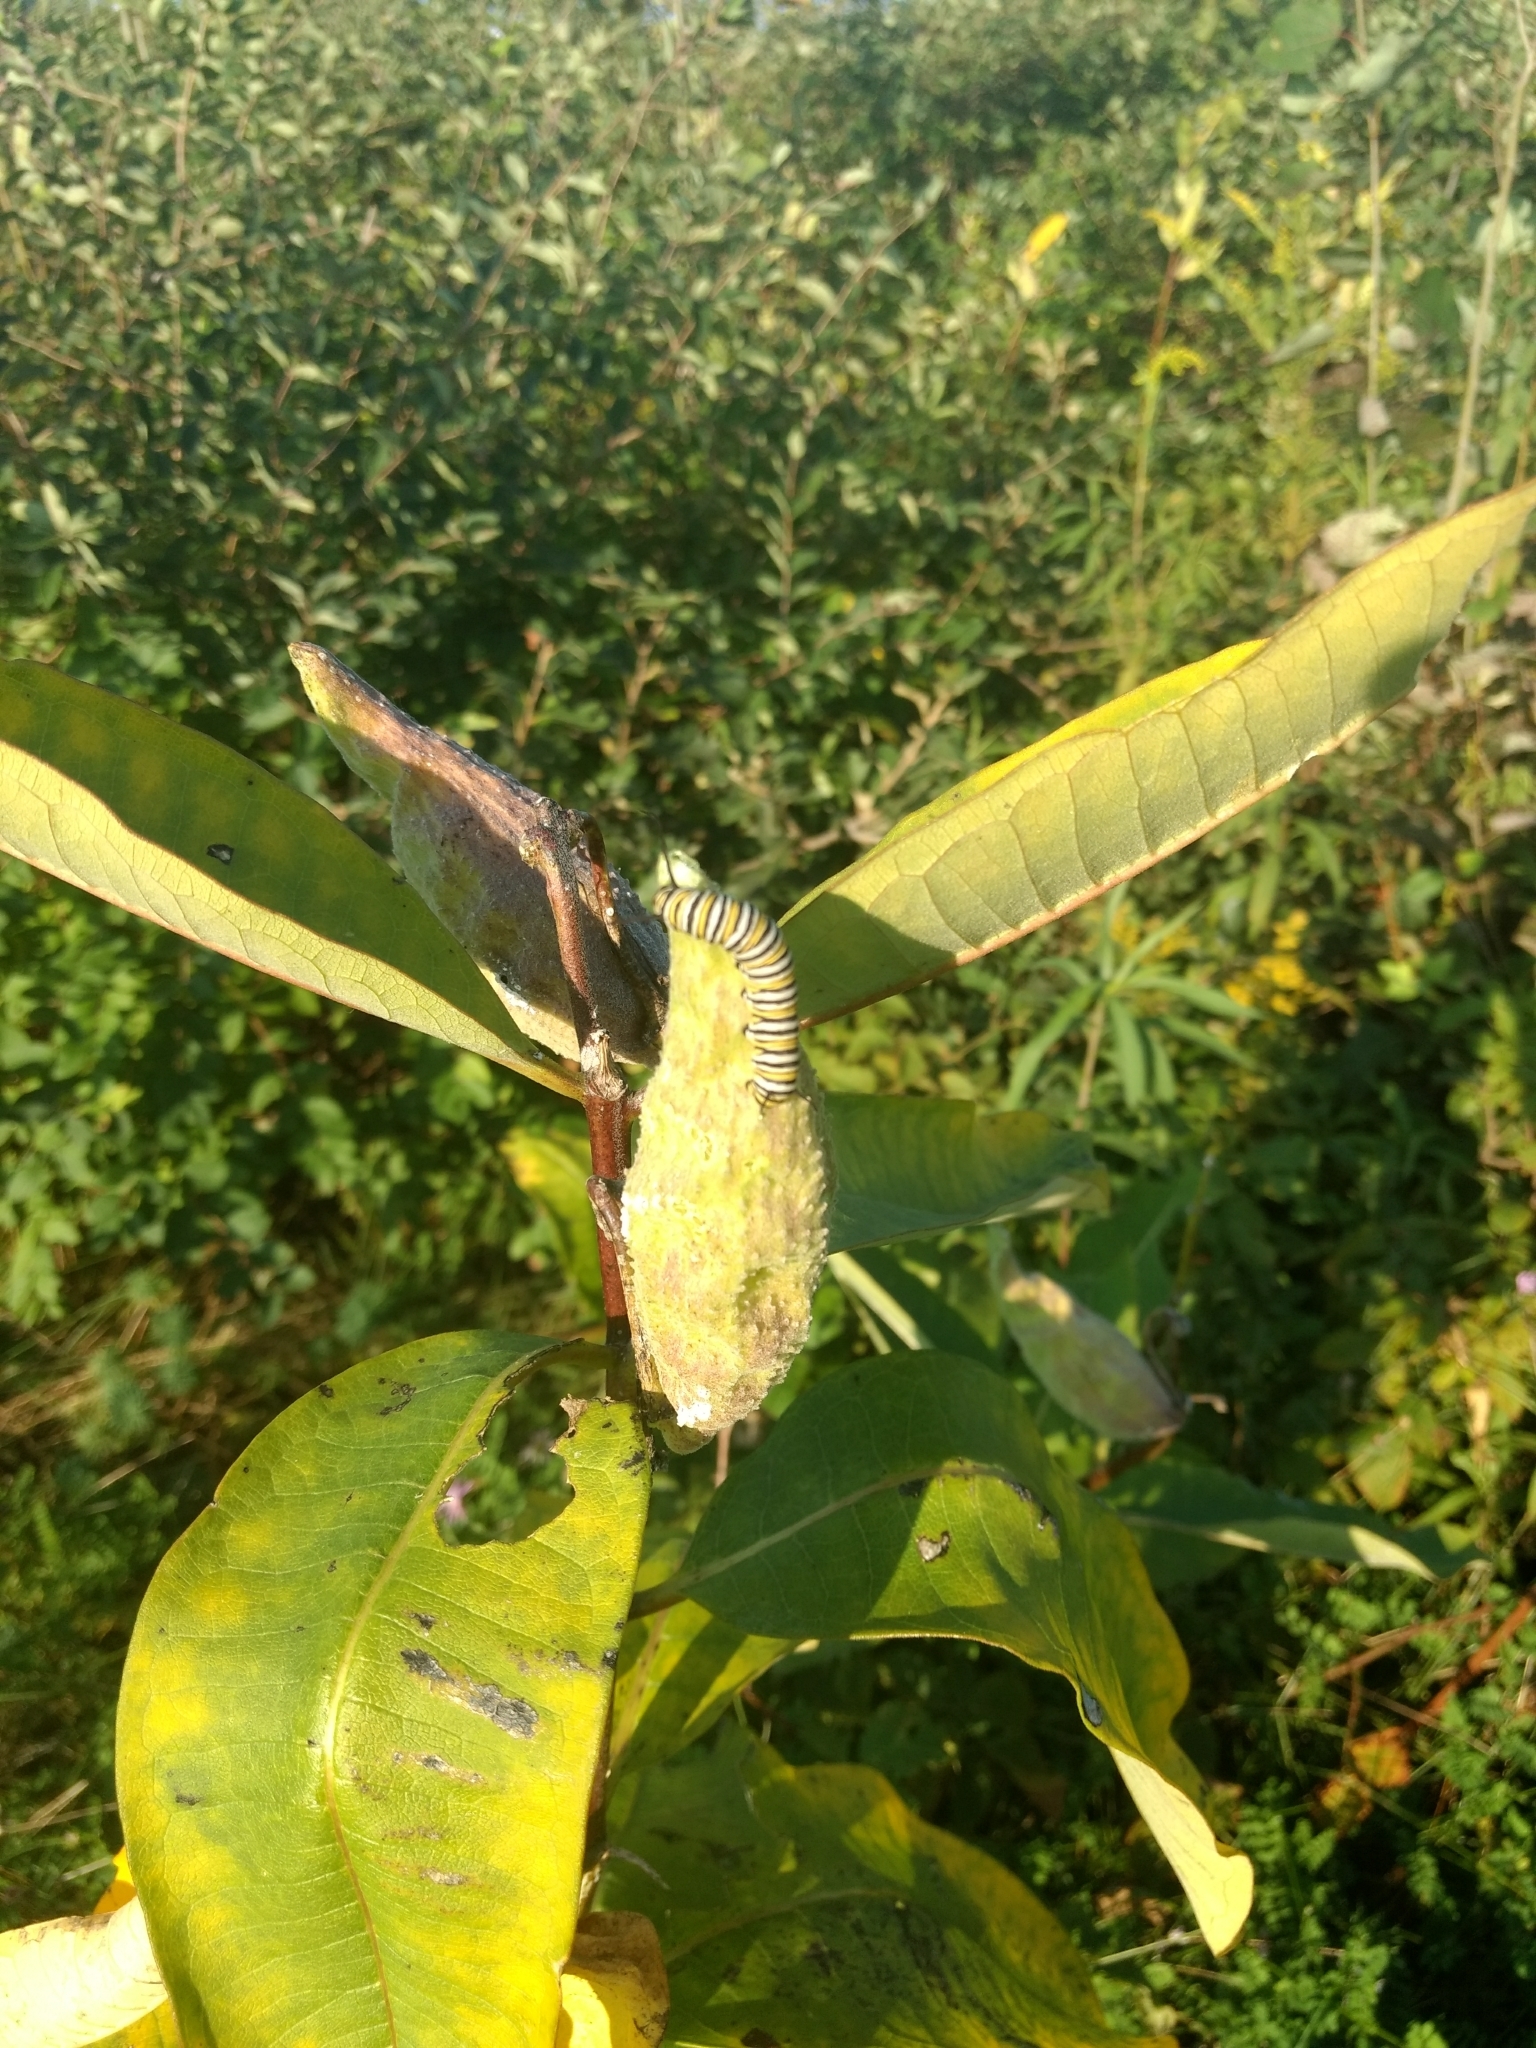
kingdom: Plantae
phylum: Tracheophyta
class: Magnoliopsida
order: Gentianales
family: Apocynaceae
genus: Asclepias
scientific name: Asclepias syriaca
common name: Common milkweed
